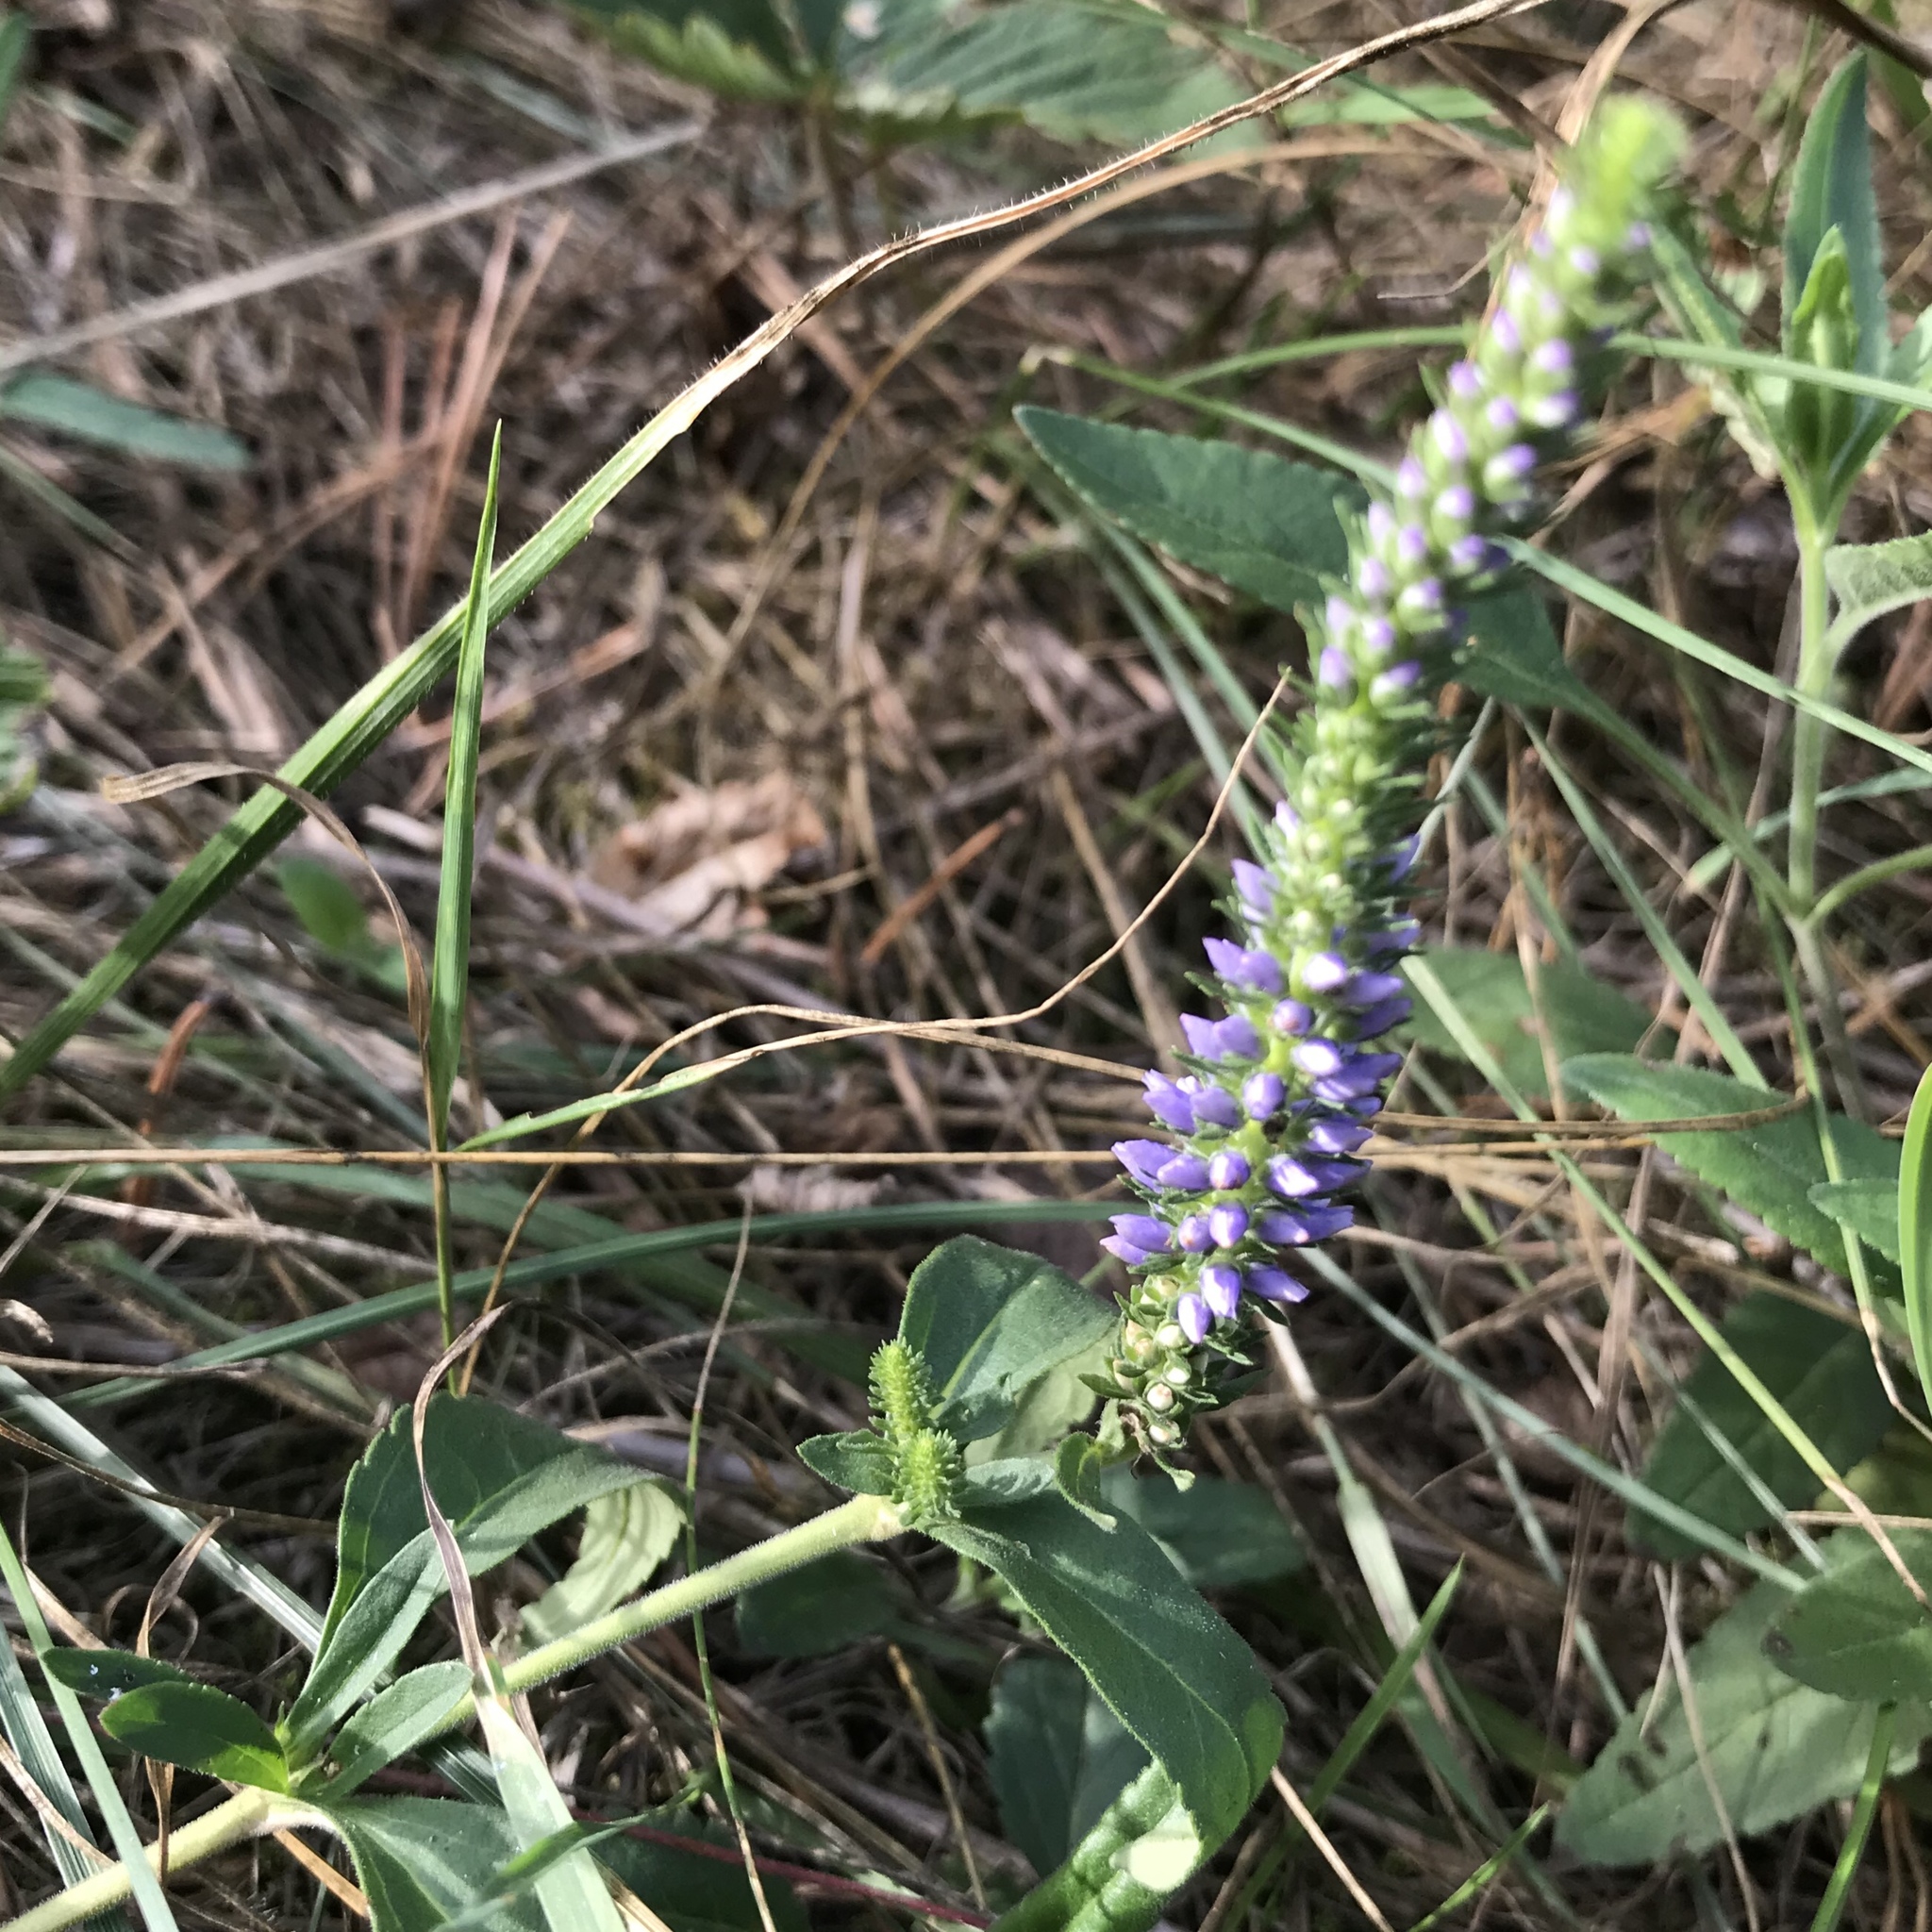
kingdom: Plantae
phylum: Tracheophyta
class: Magnoliopsida
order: Lamiales
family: Plantaginaceae
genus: Veronica
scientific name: Veronica spicata
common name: Spiked speedwell
